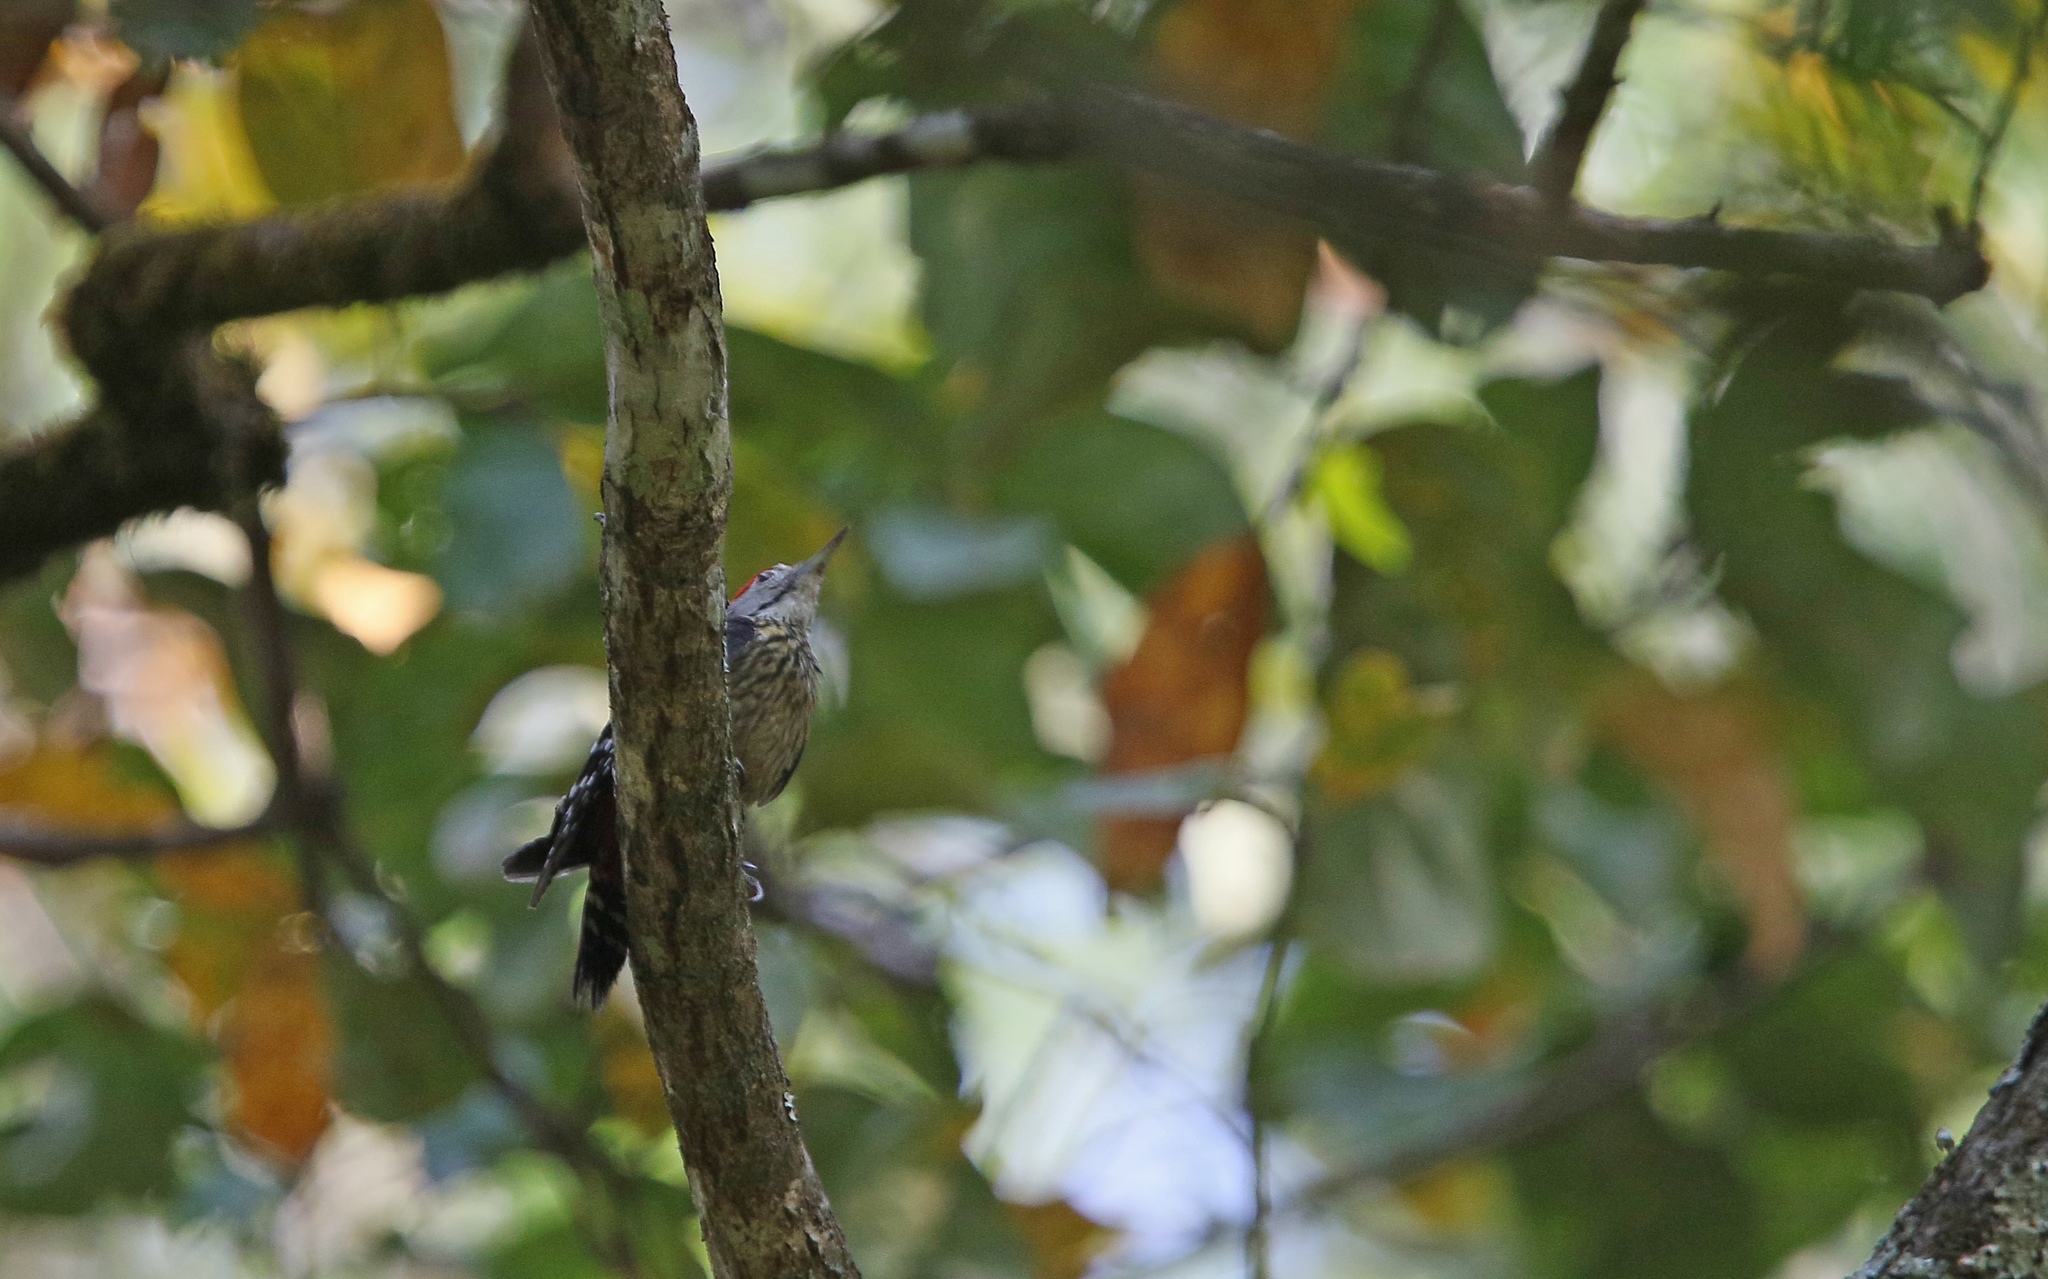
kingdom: Animalia
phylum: Chordata
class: Aves
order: Piciformes
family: Picidae
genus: Dendrocopos
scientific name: Dendrocopos atratus
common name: Stripe-breasted woodpecker
